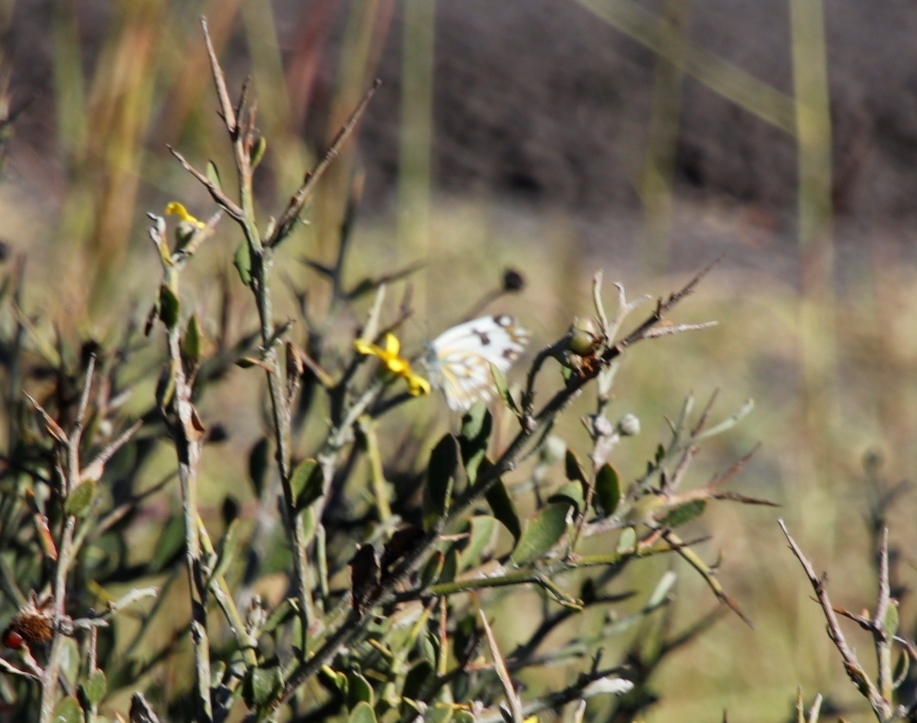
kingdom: Animalia
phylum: Arthropoda
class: Insecta
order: Lepidoptera
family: Pieridae
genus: Pontia
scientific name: Pontia helice
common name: Meadow white
